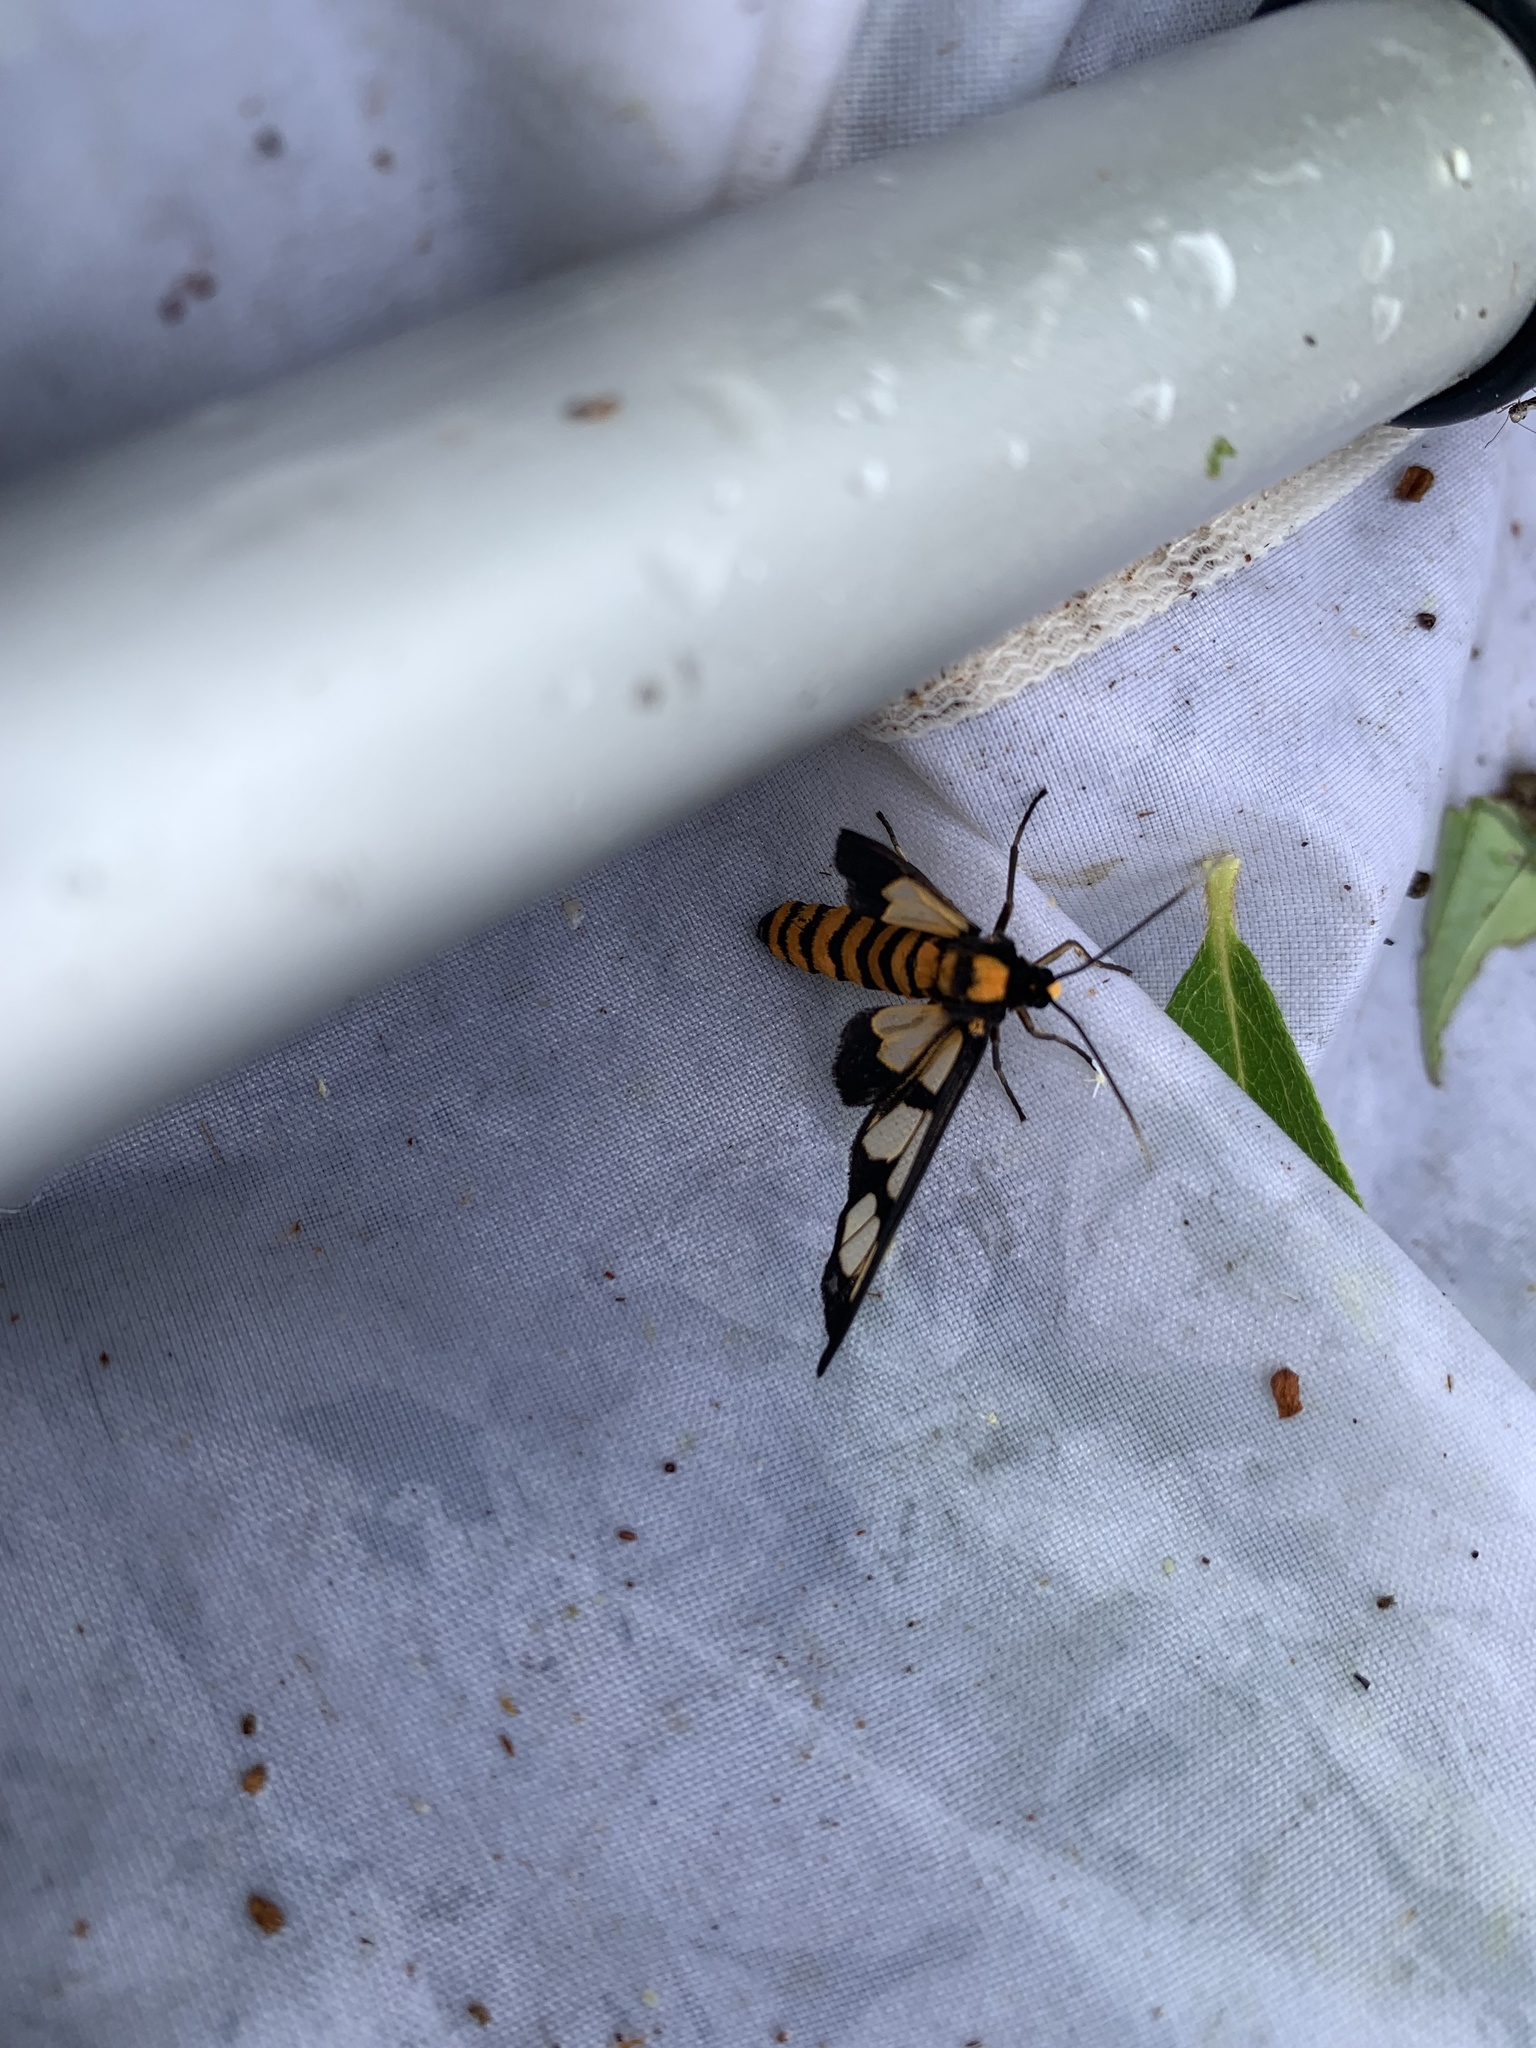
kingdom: Animalia
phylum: Arthropoda
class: Insecta
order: Lepidoptera
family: Erebidae
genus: Amata
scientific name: Amata germana
